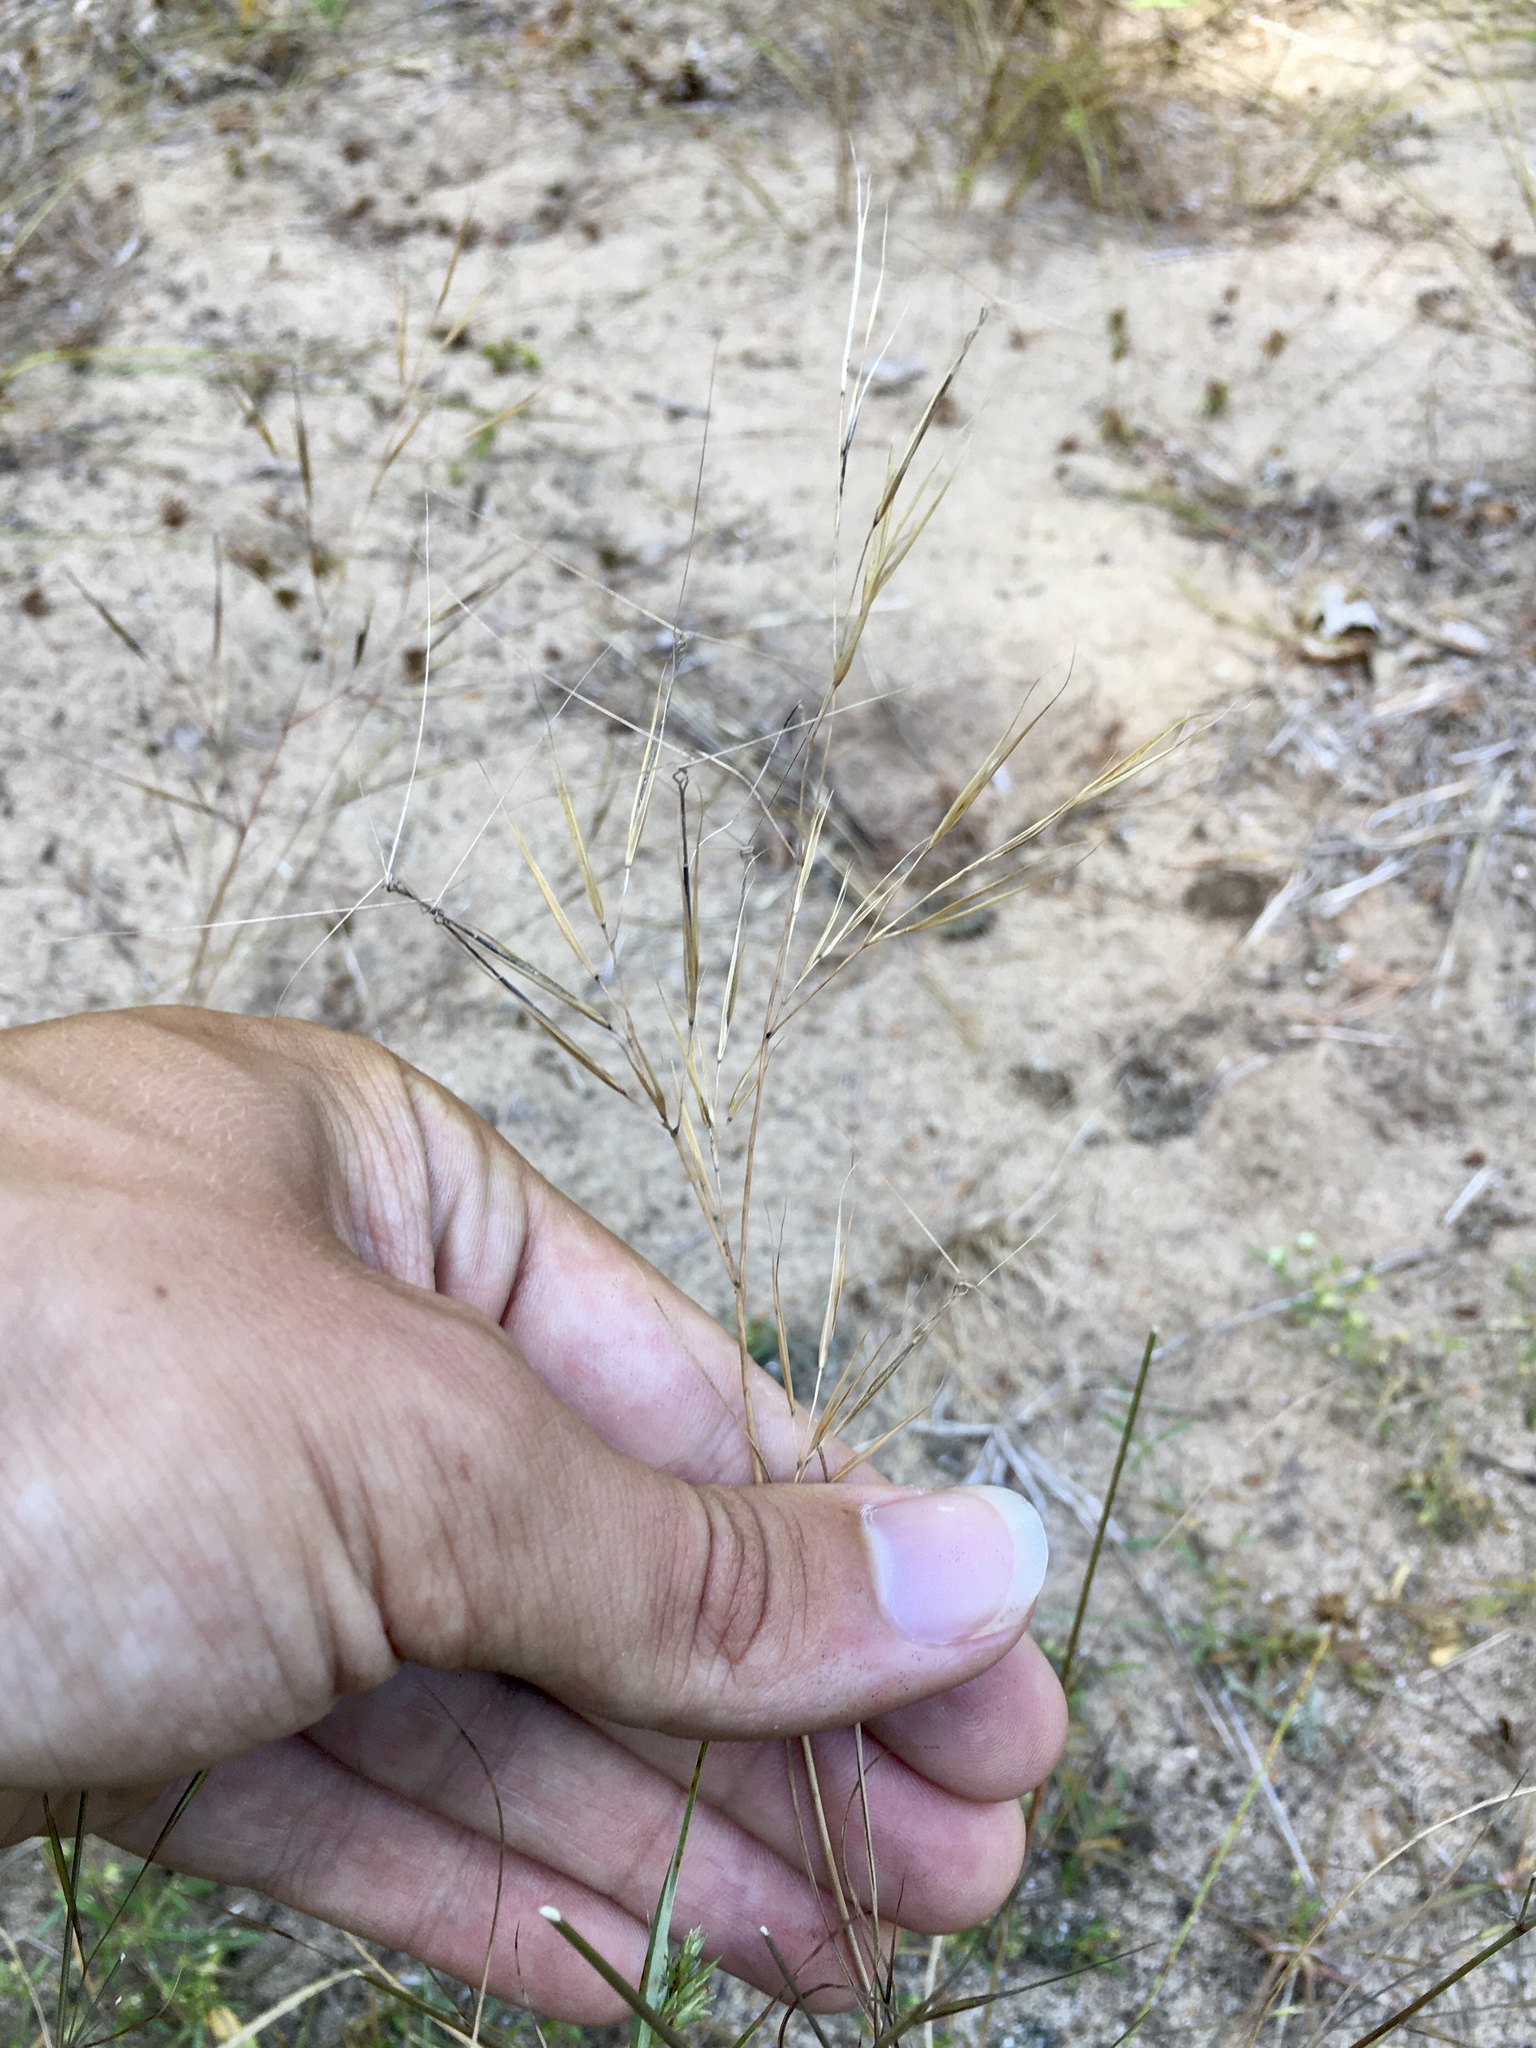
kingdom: Plantae
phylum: Tracheophyta
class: Liliopsida
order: Poales
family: Poaceae
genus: Aristida
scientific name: Aristida tuberculosa
